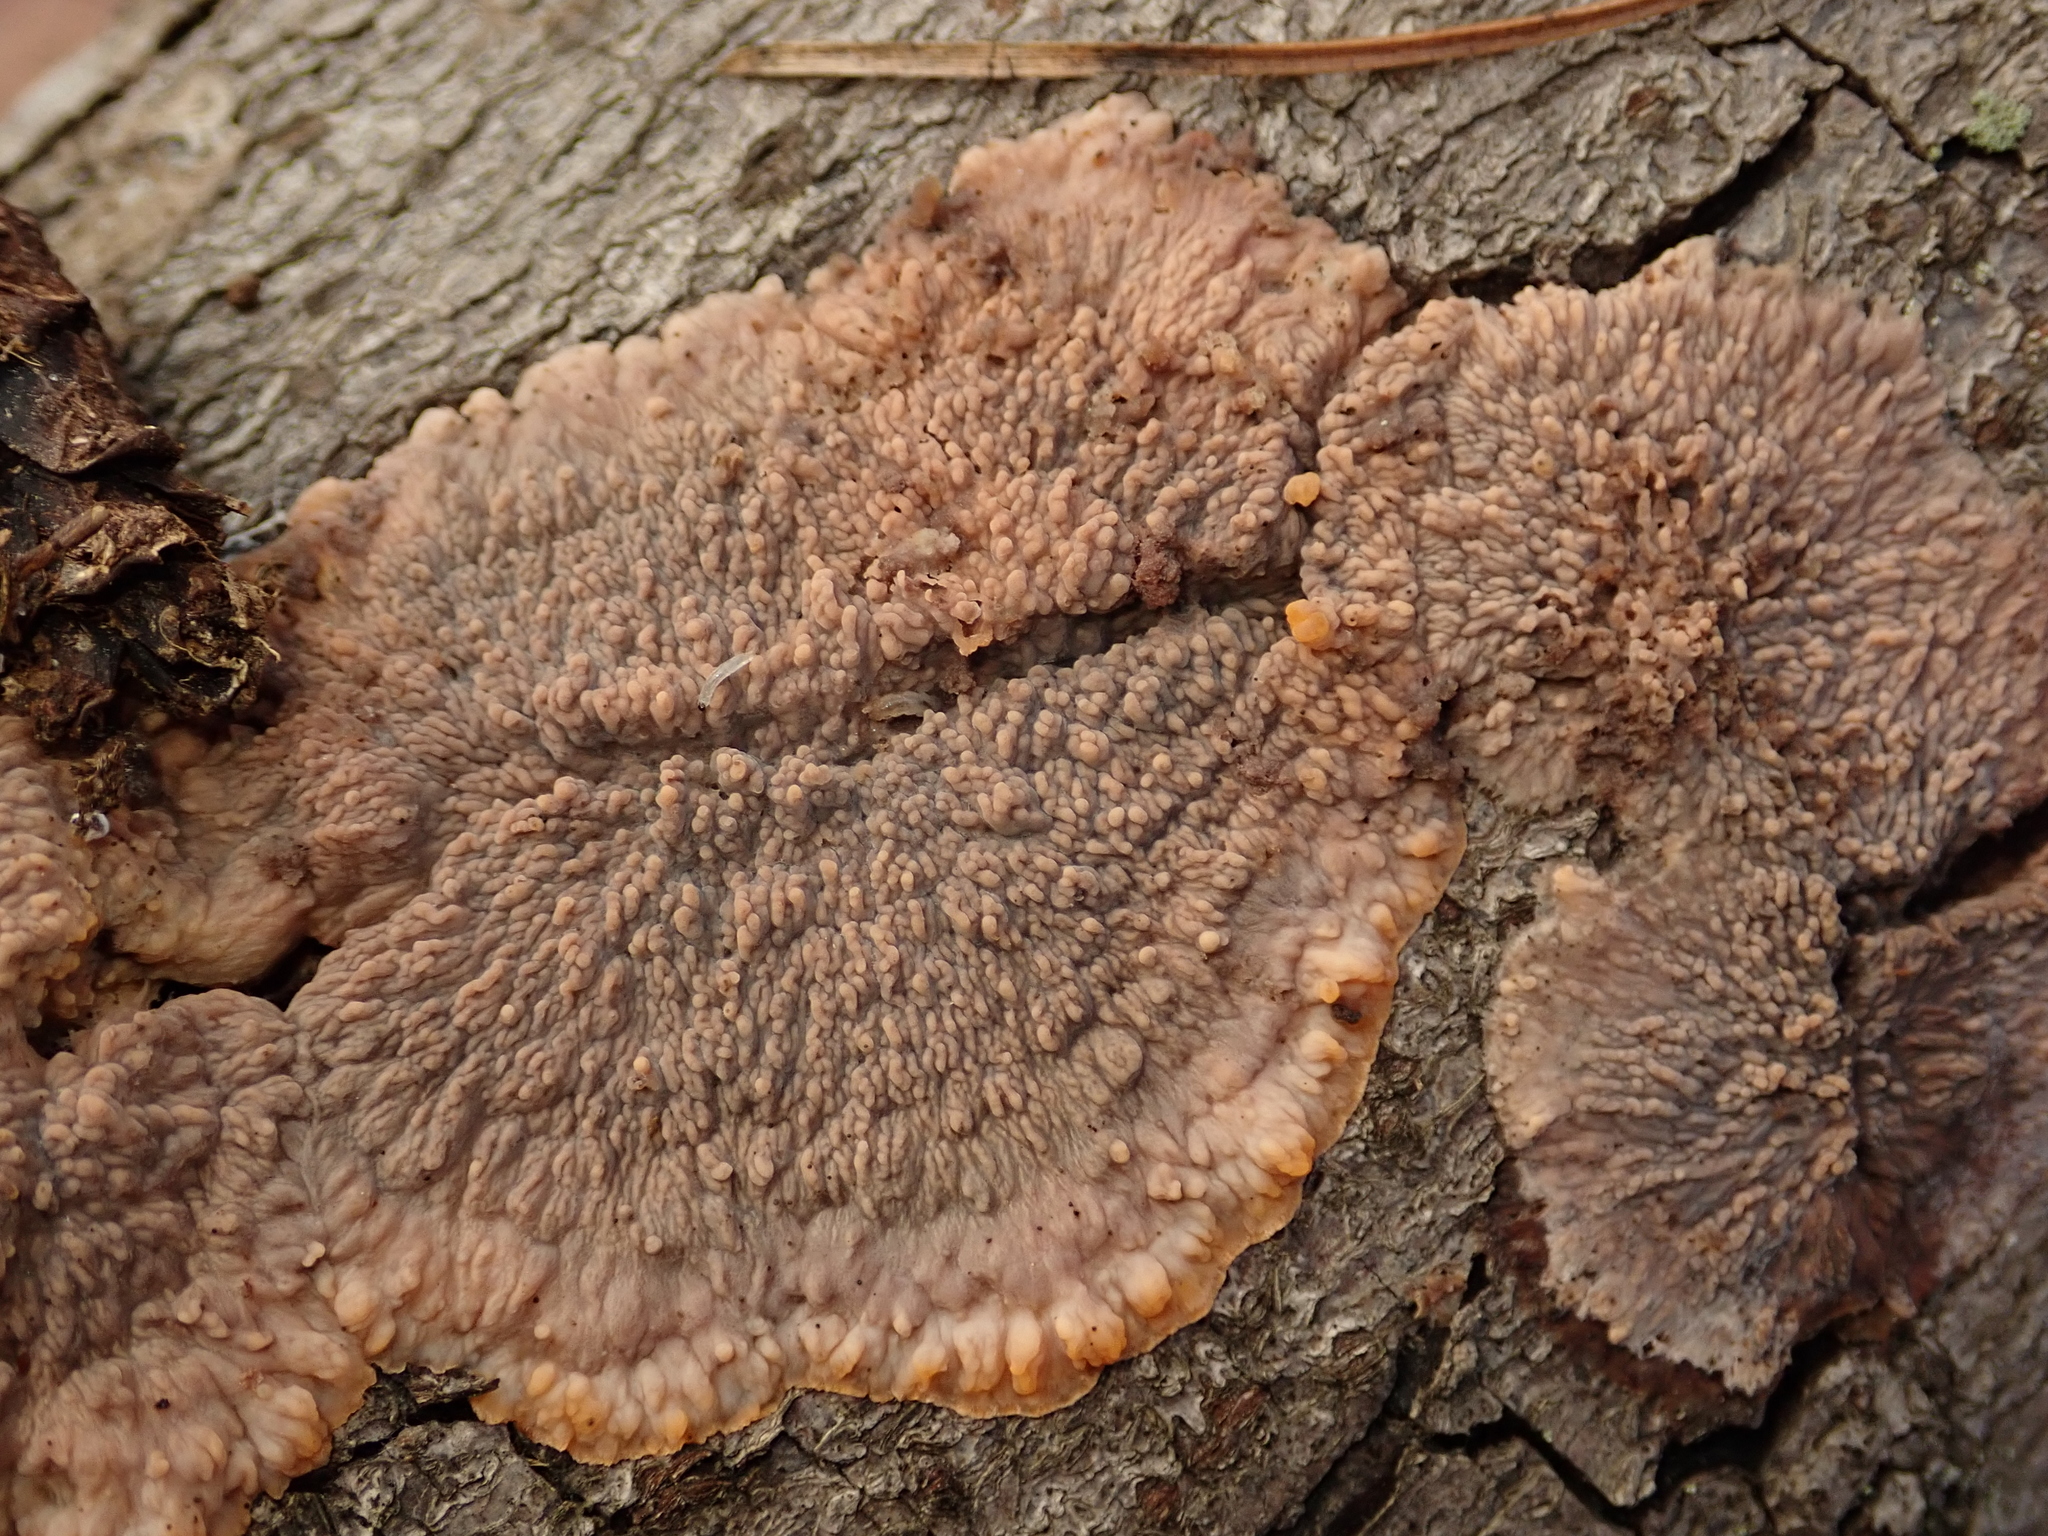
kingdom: Fungi
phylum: Basidiomycota
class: Agaricomycetes
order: Polyporales
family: Meruliaceae
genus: Phlebia
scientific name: Phlebia radiata
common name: Wrinkled crust
